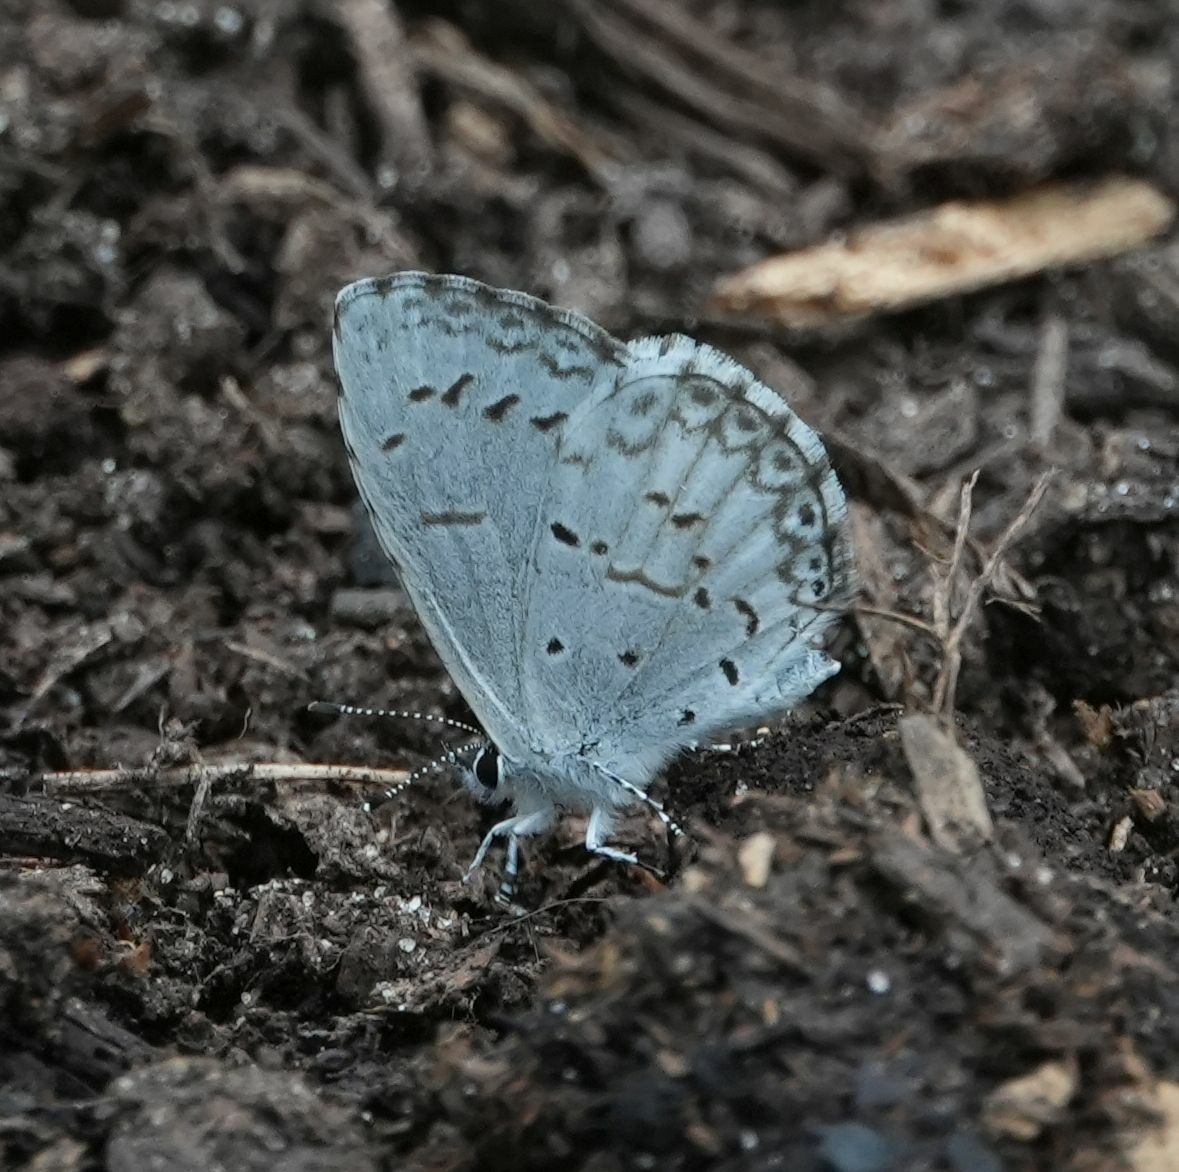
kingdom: Animalia
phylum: Arthropoda
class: Insecta
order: Lepidoptera
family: Lycaenidae
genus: Celastrina
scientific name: Celastrina lucia
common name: Lucia azure
